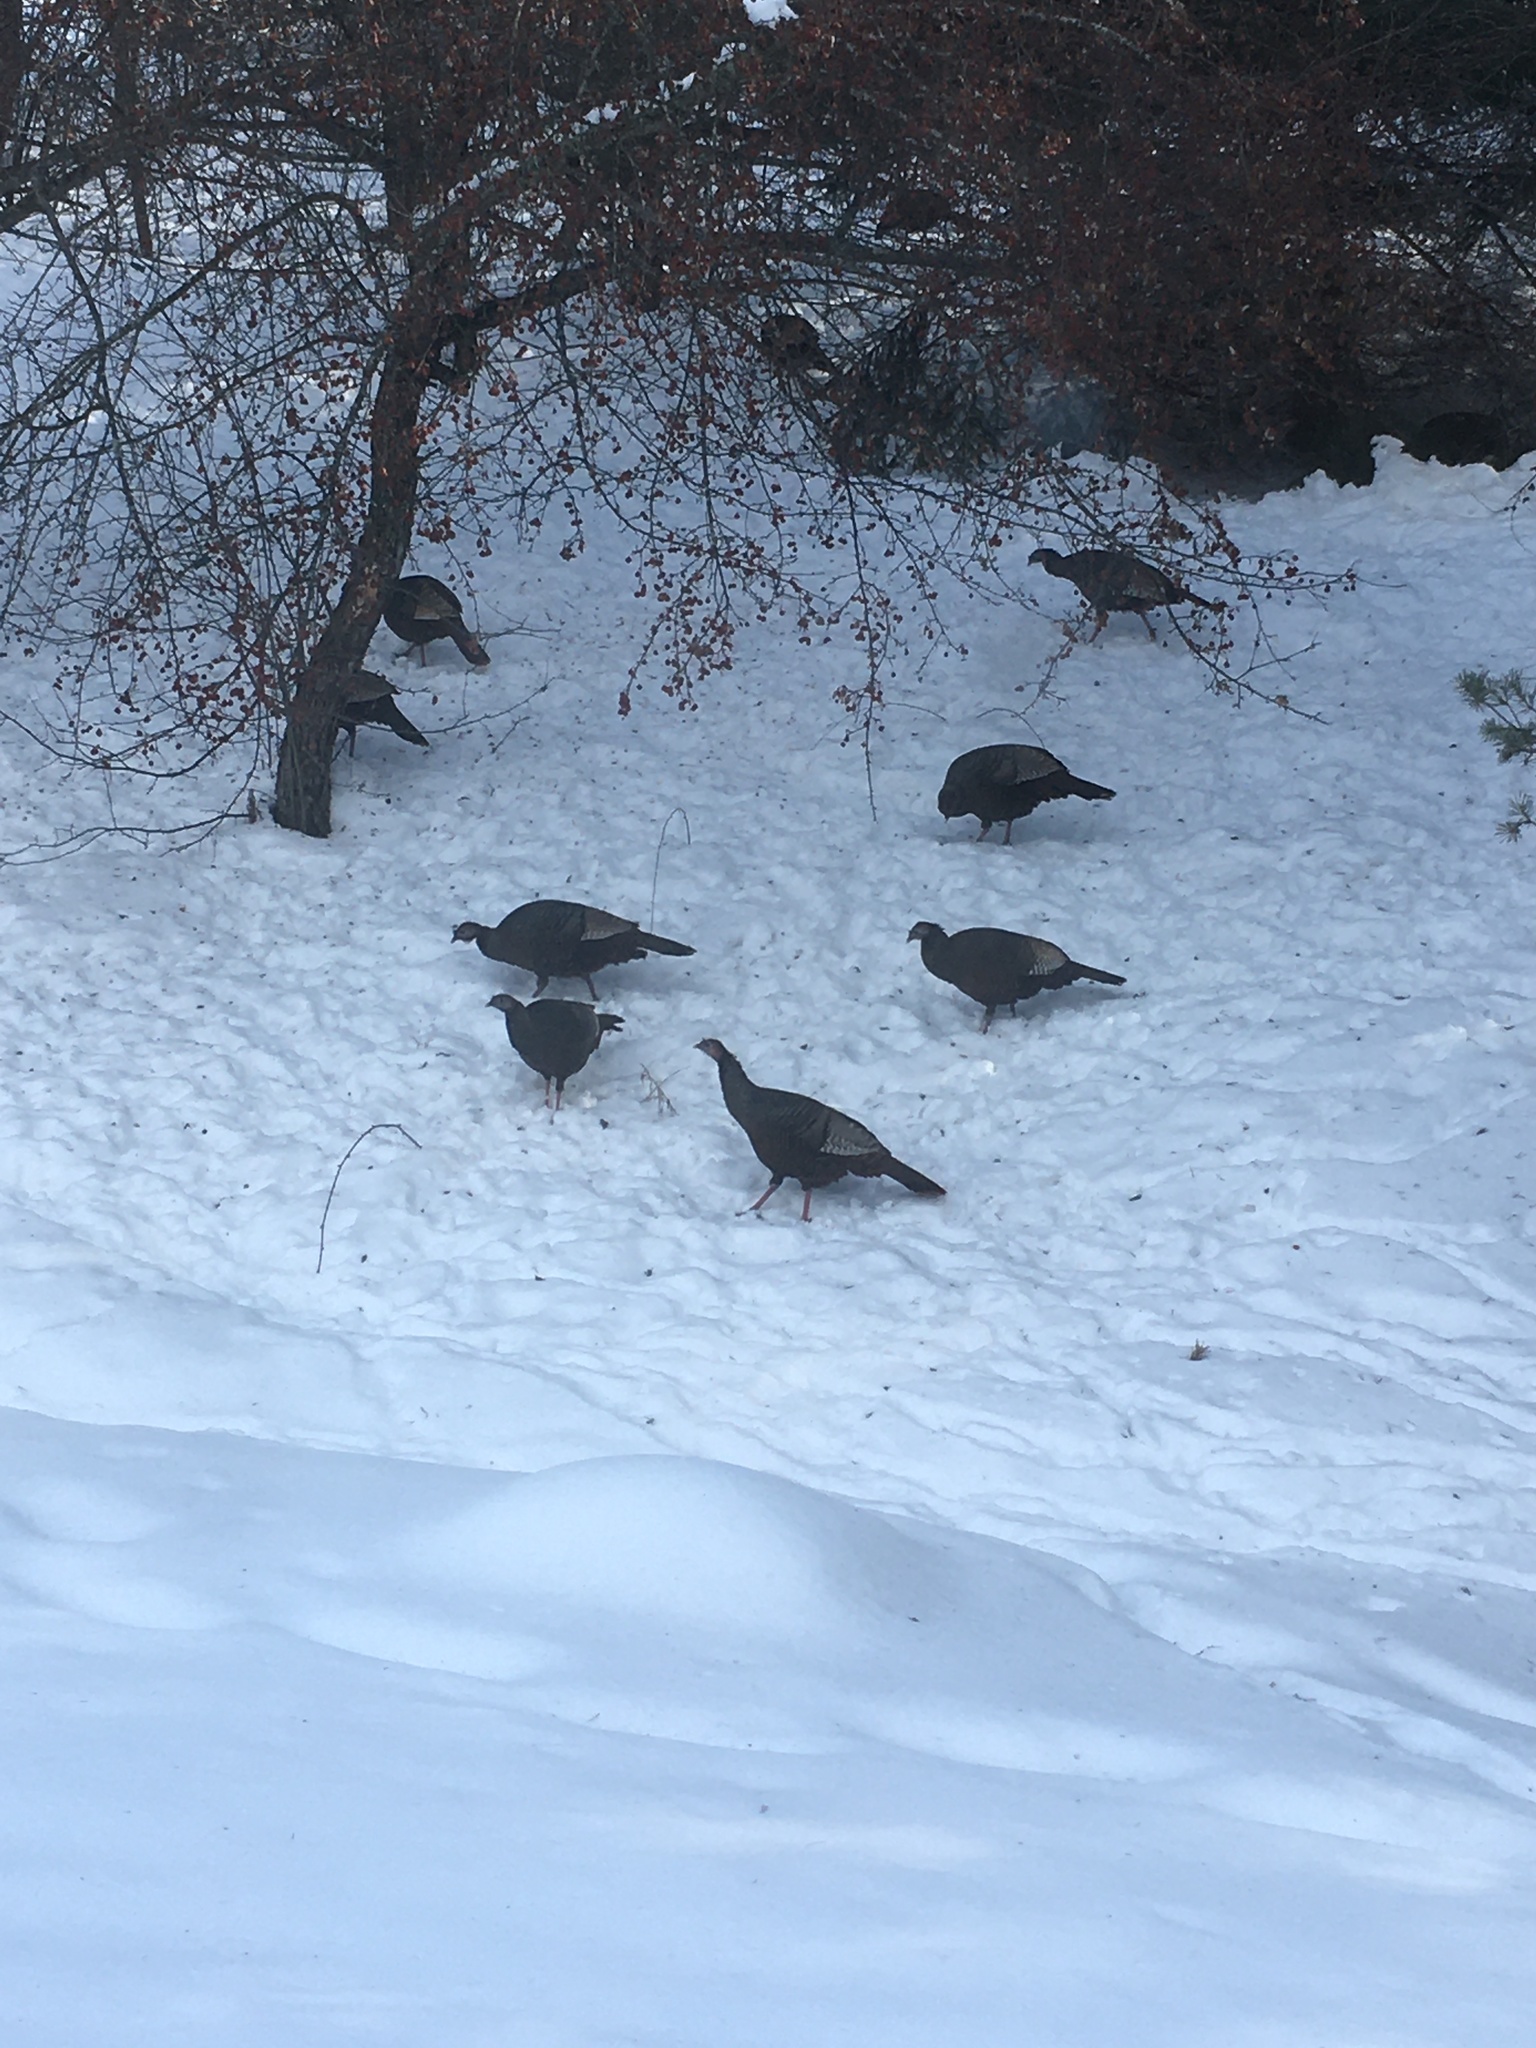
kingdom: Animalia
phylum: Chordata
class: Aves
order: Galliformes
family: Phasianidae
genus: Meleagris
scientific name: Meleagris gallopavo
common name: Wild turkey
